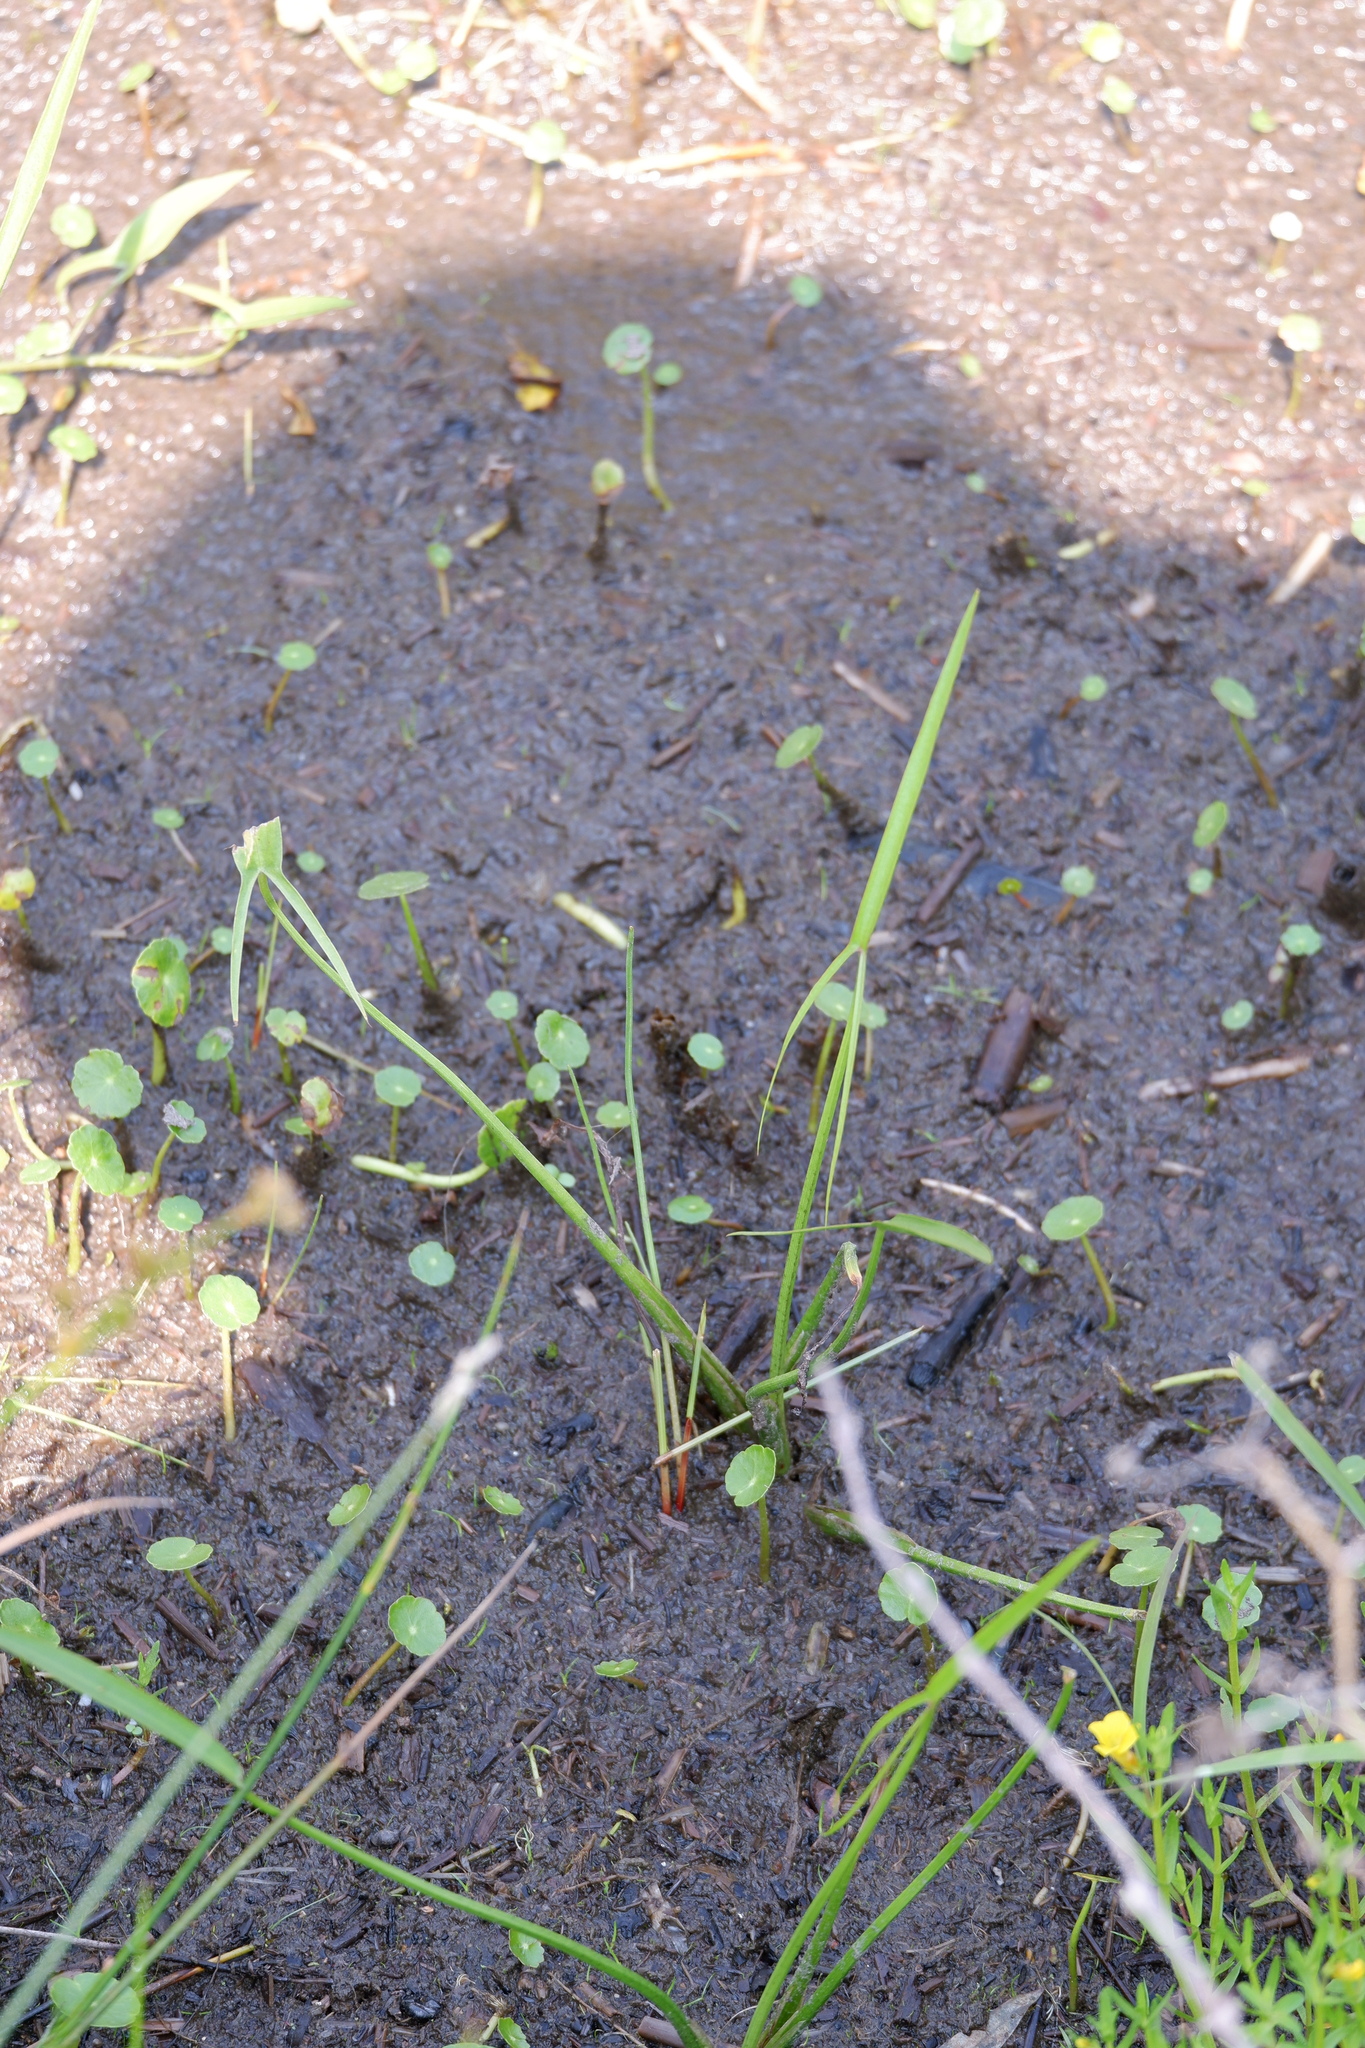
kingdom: Plantae
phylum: Tracheophyta
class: Liliopsida
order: Alismatales
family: Alismataceae
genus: Sagittaria
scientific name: Sagittaria engelmanniana
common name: Acid-water arrowhead
